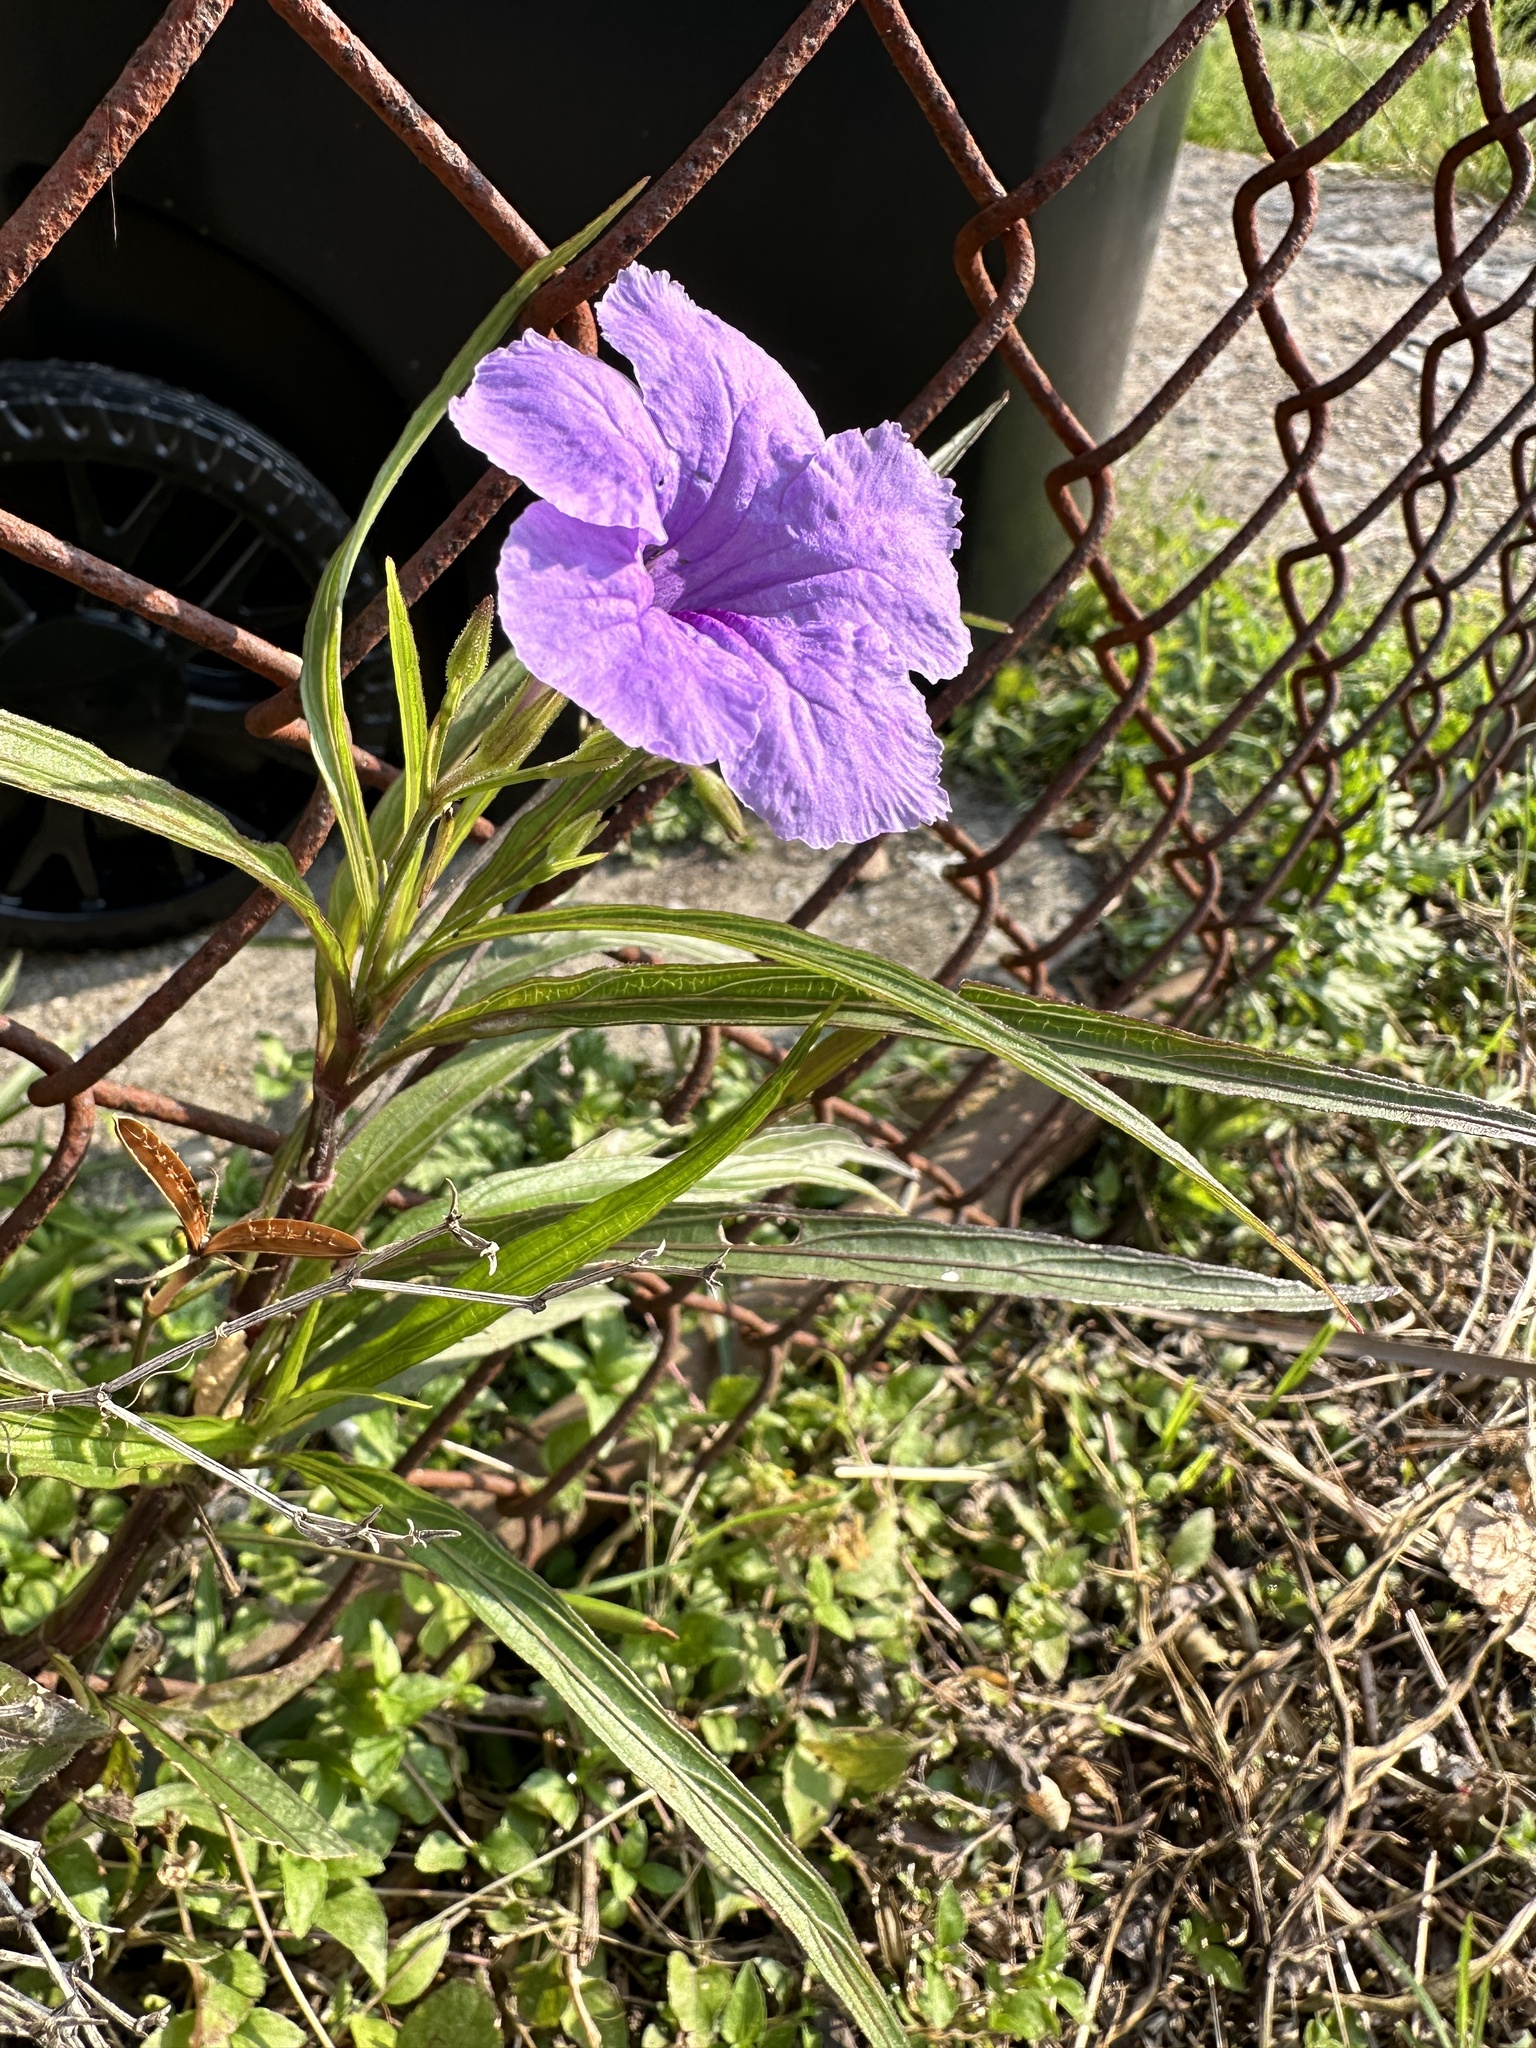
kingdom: Plantae
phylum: Tracheophyta
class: Magnoliopsida
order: Lamiales
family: Acanthaceae
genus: Ruellia
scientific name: Ruellia simplex
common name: Softseed wild petunia
